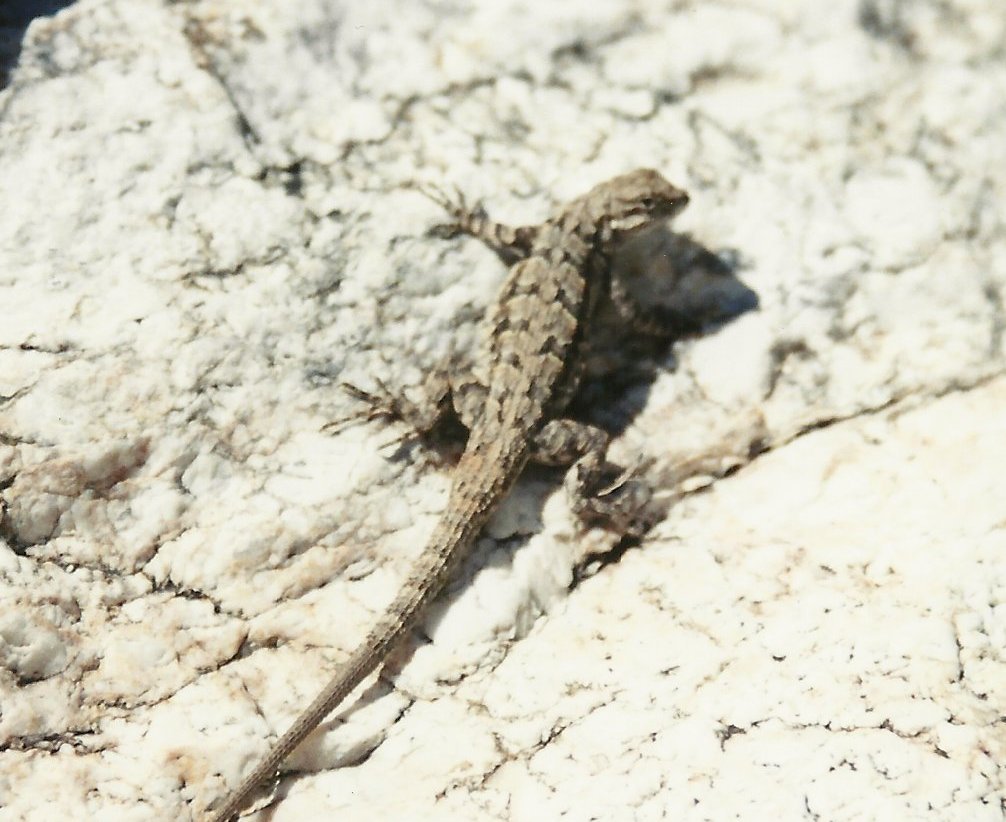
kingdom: Animalia
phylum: Chordata
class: Squamata
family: Phrynosomatidae
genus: Urosaurus
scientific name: Urosaurus ornatus
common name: Ornate tree lizard
